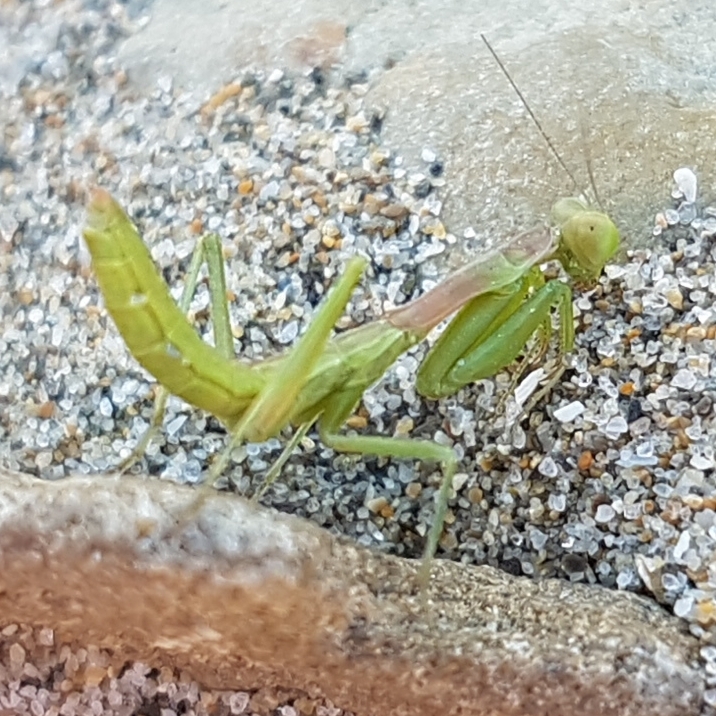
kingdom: Animalia
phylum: Arthropoda
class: Insecta
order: Mantodea
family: Eremiaphilidae
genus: Iris
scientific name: Iris oratoria
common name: Mediterranean mantis
